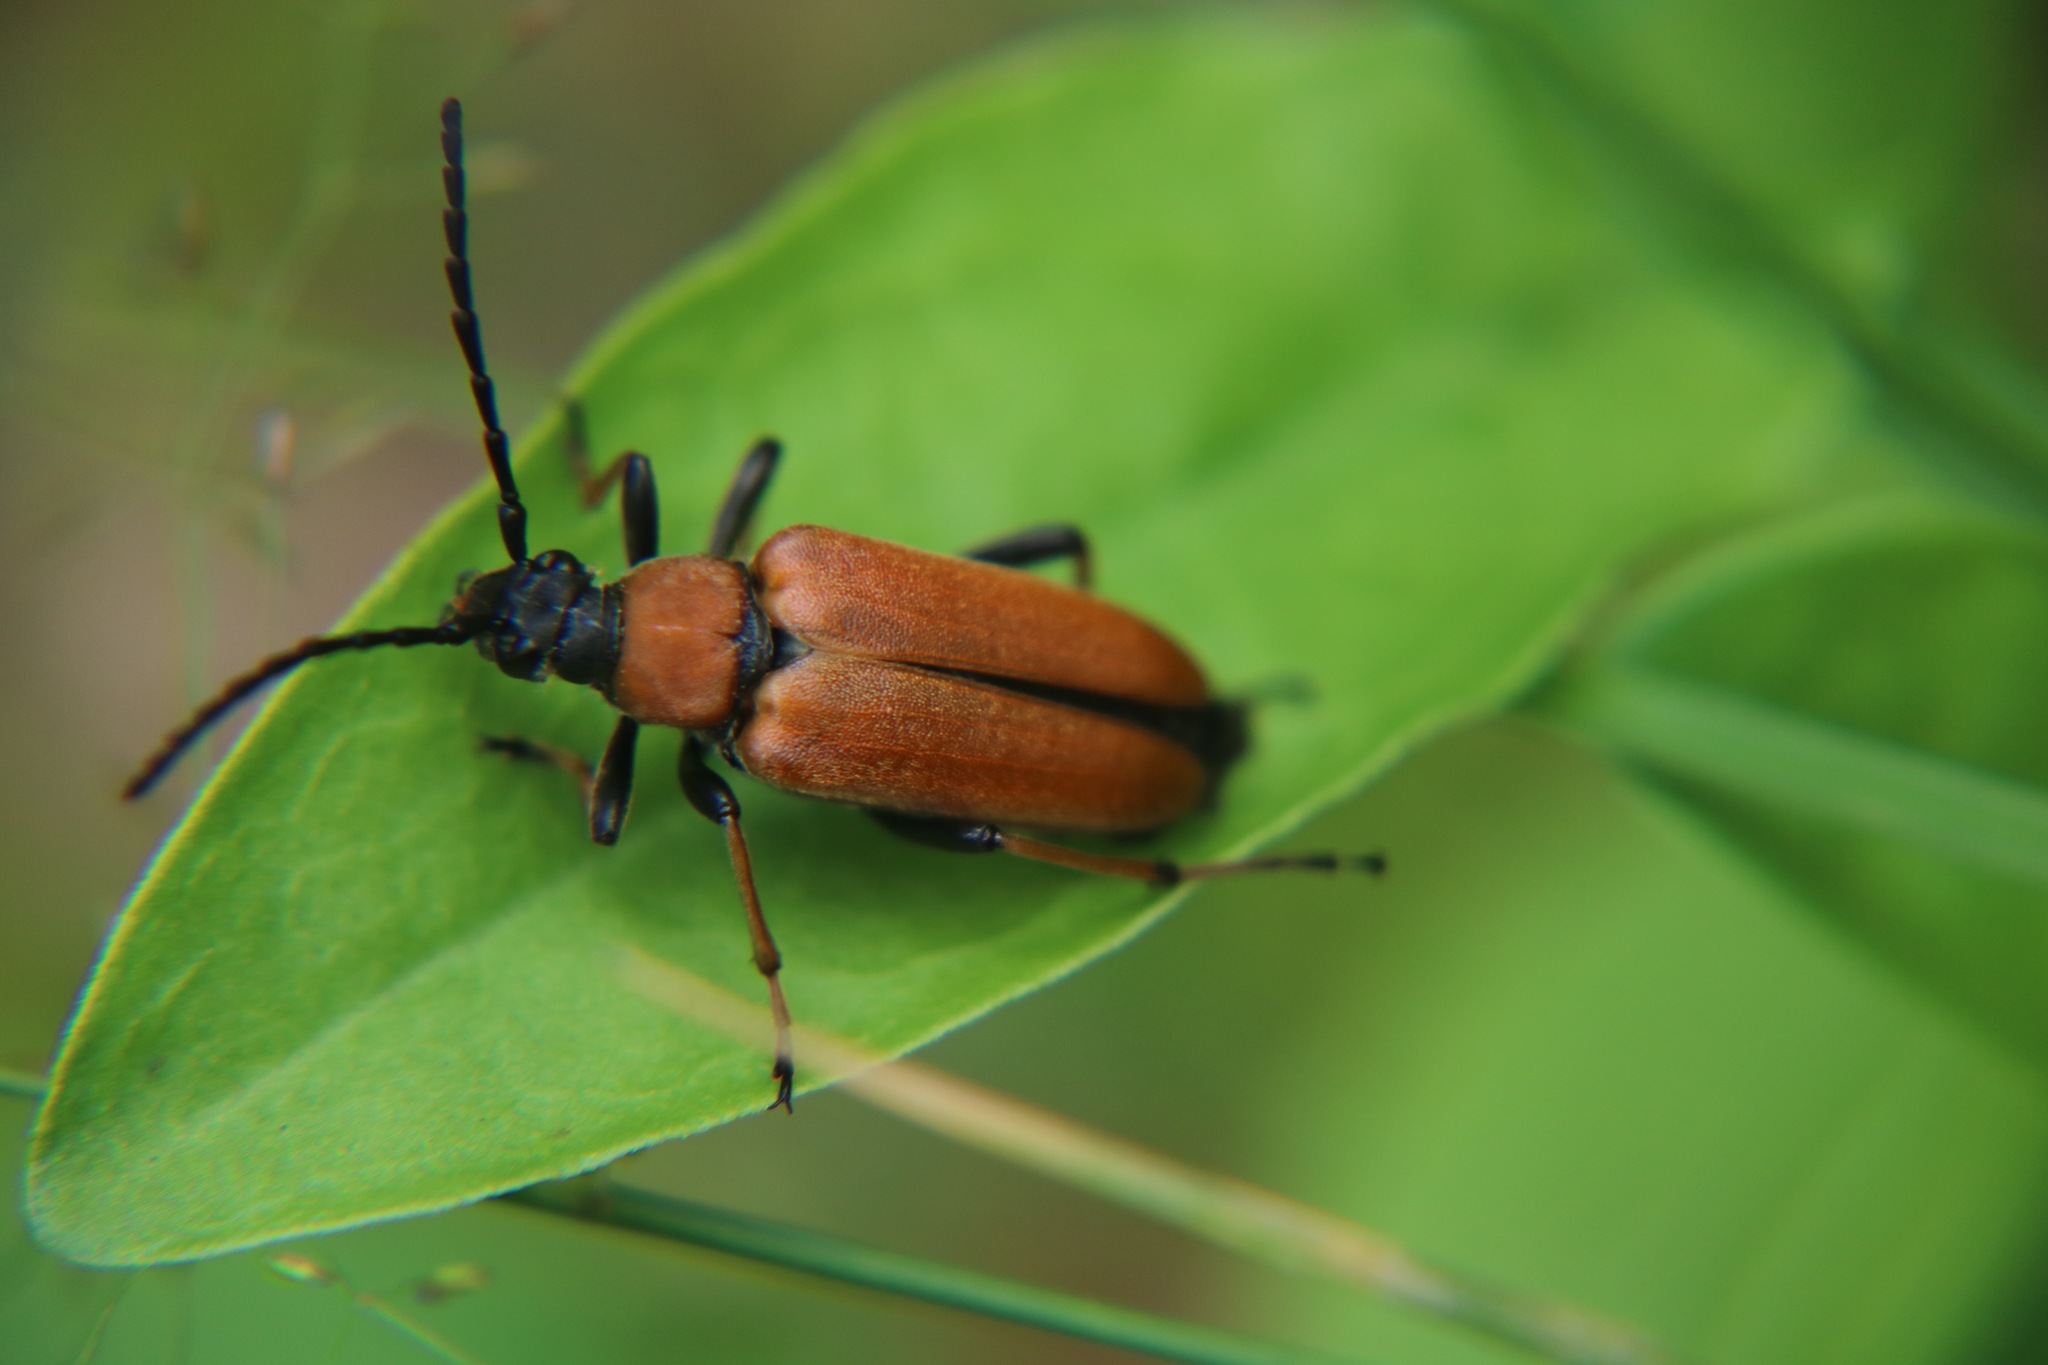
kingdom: Animalia
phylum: Arthropoda
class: Insecta
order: Coleoptera
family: Cerambycidae
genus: Stictoleptura
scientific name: Stictoleptura rubra
